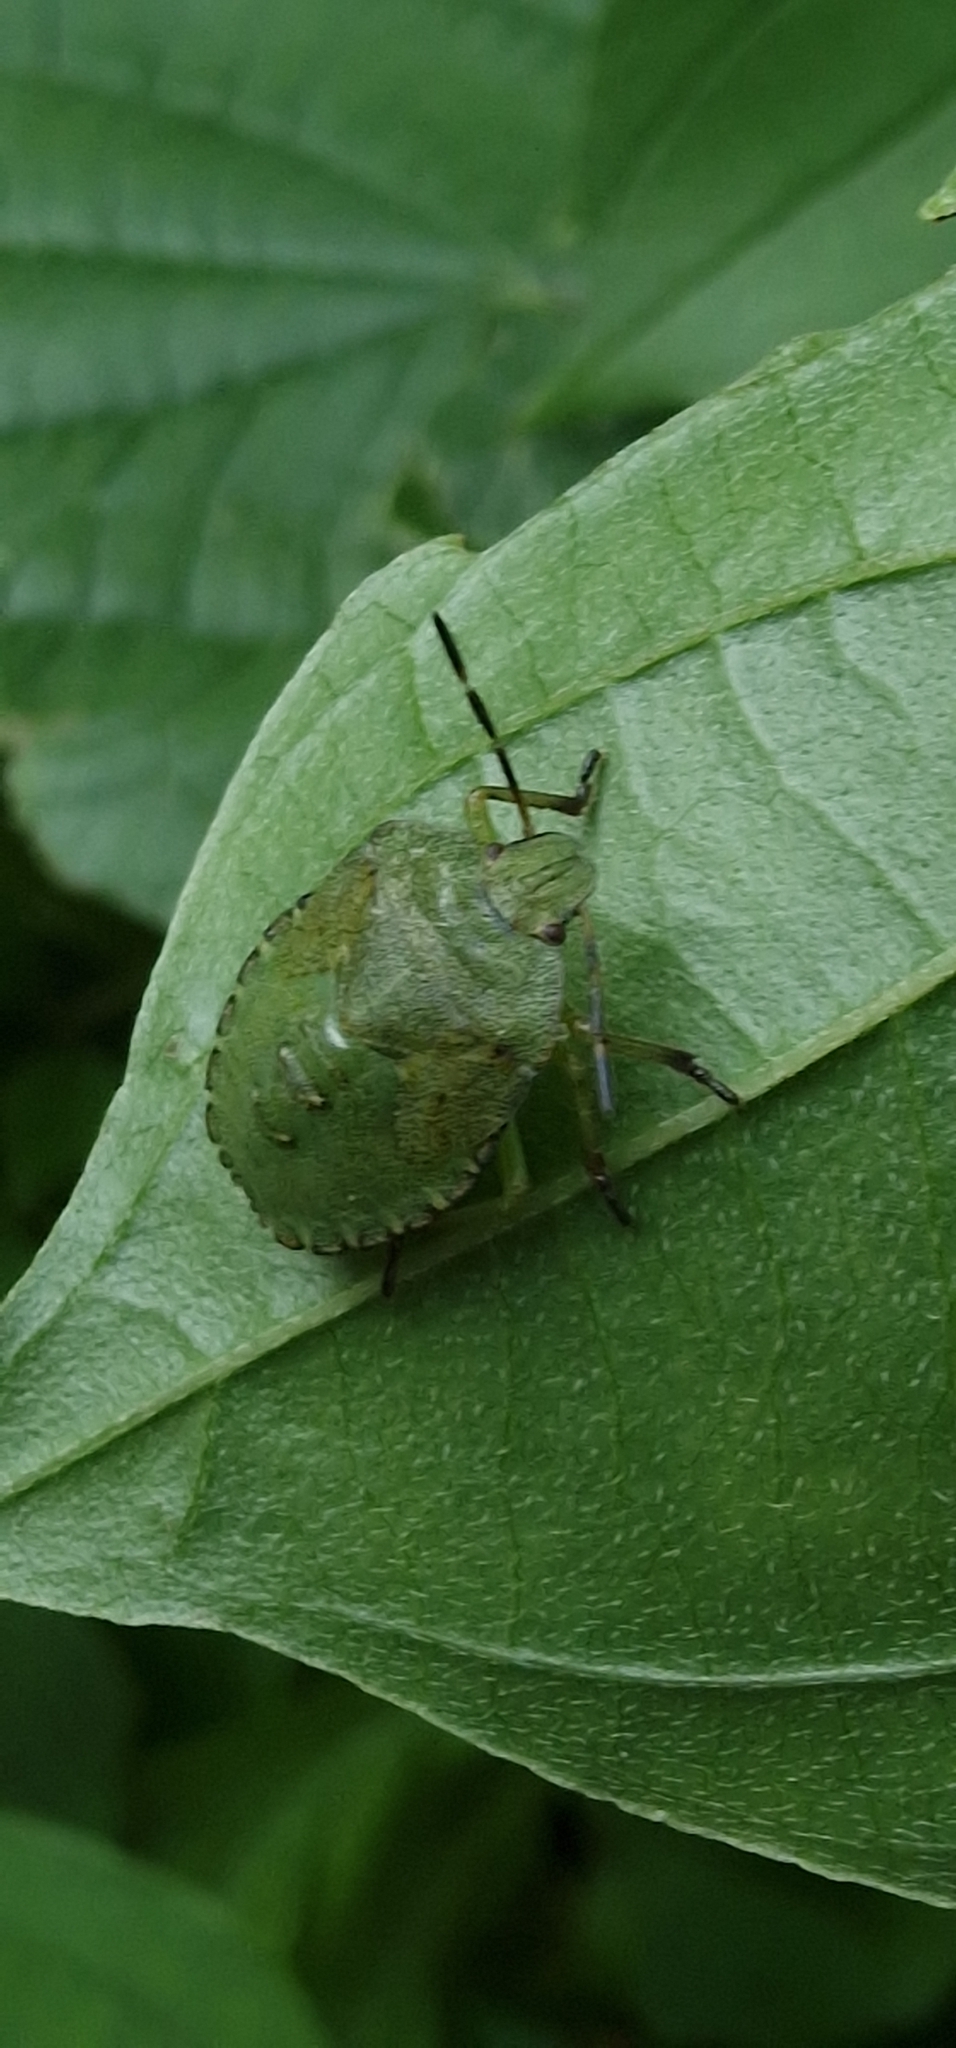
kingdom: Animalia
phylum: Arthropoda
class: Insecta
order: Hemiptera
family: Pentatomidae
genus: Palomena
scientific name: Palomena prasina
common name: Green shieldbug
